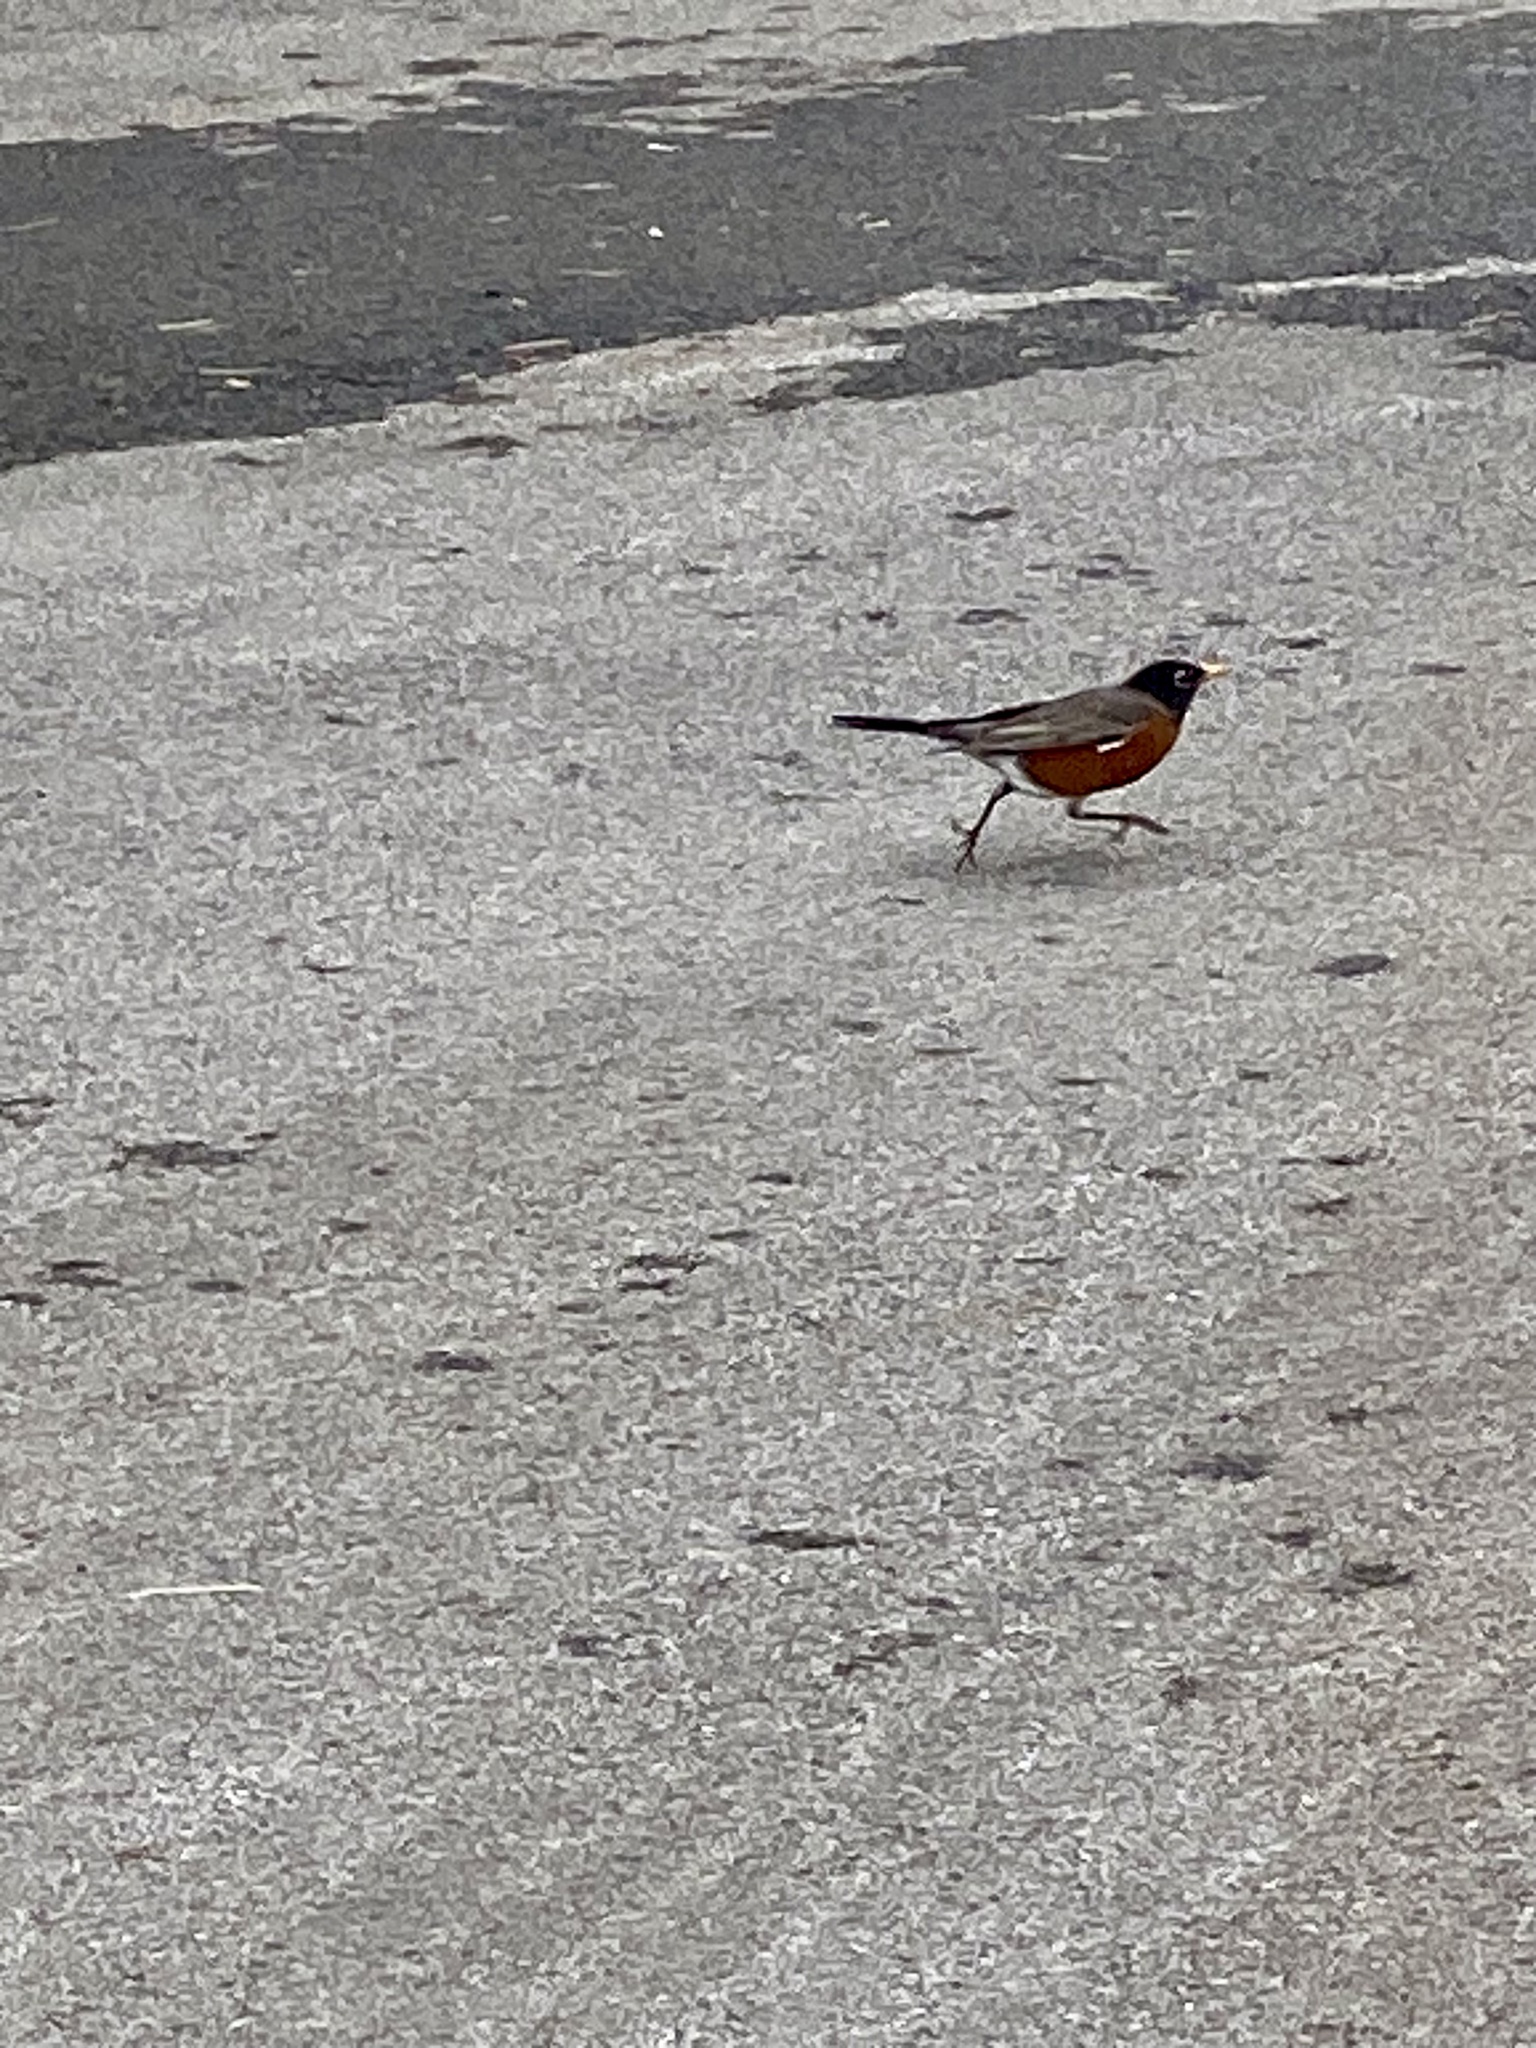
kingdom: Animalia
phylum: Chordata
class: Aves
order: Passeriformes
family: Turdidae
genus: Turdus
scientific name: Turdus migratorius
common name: American robin
